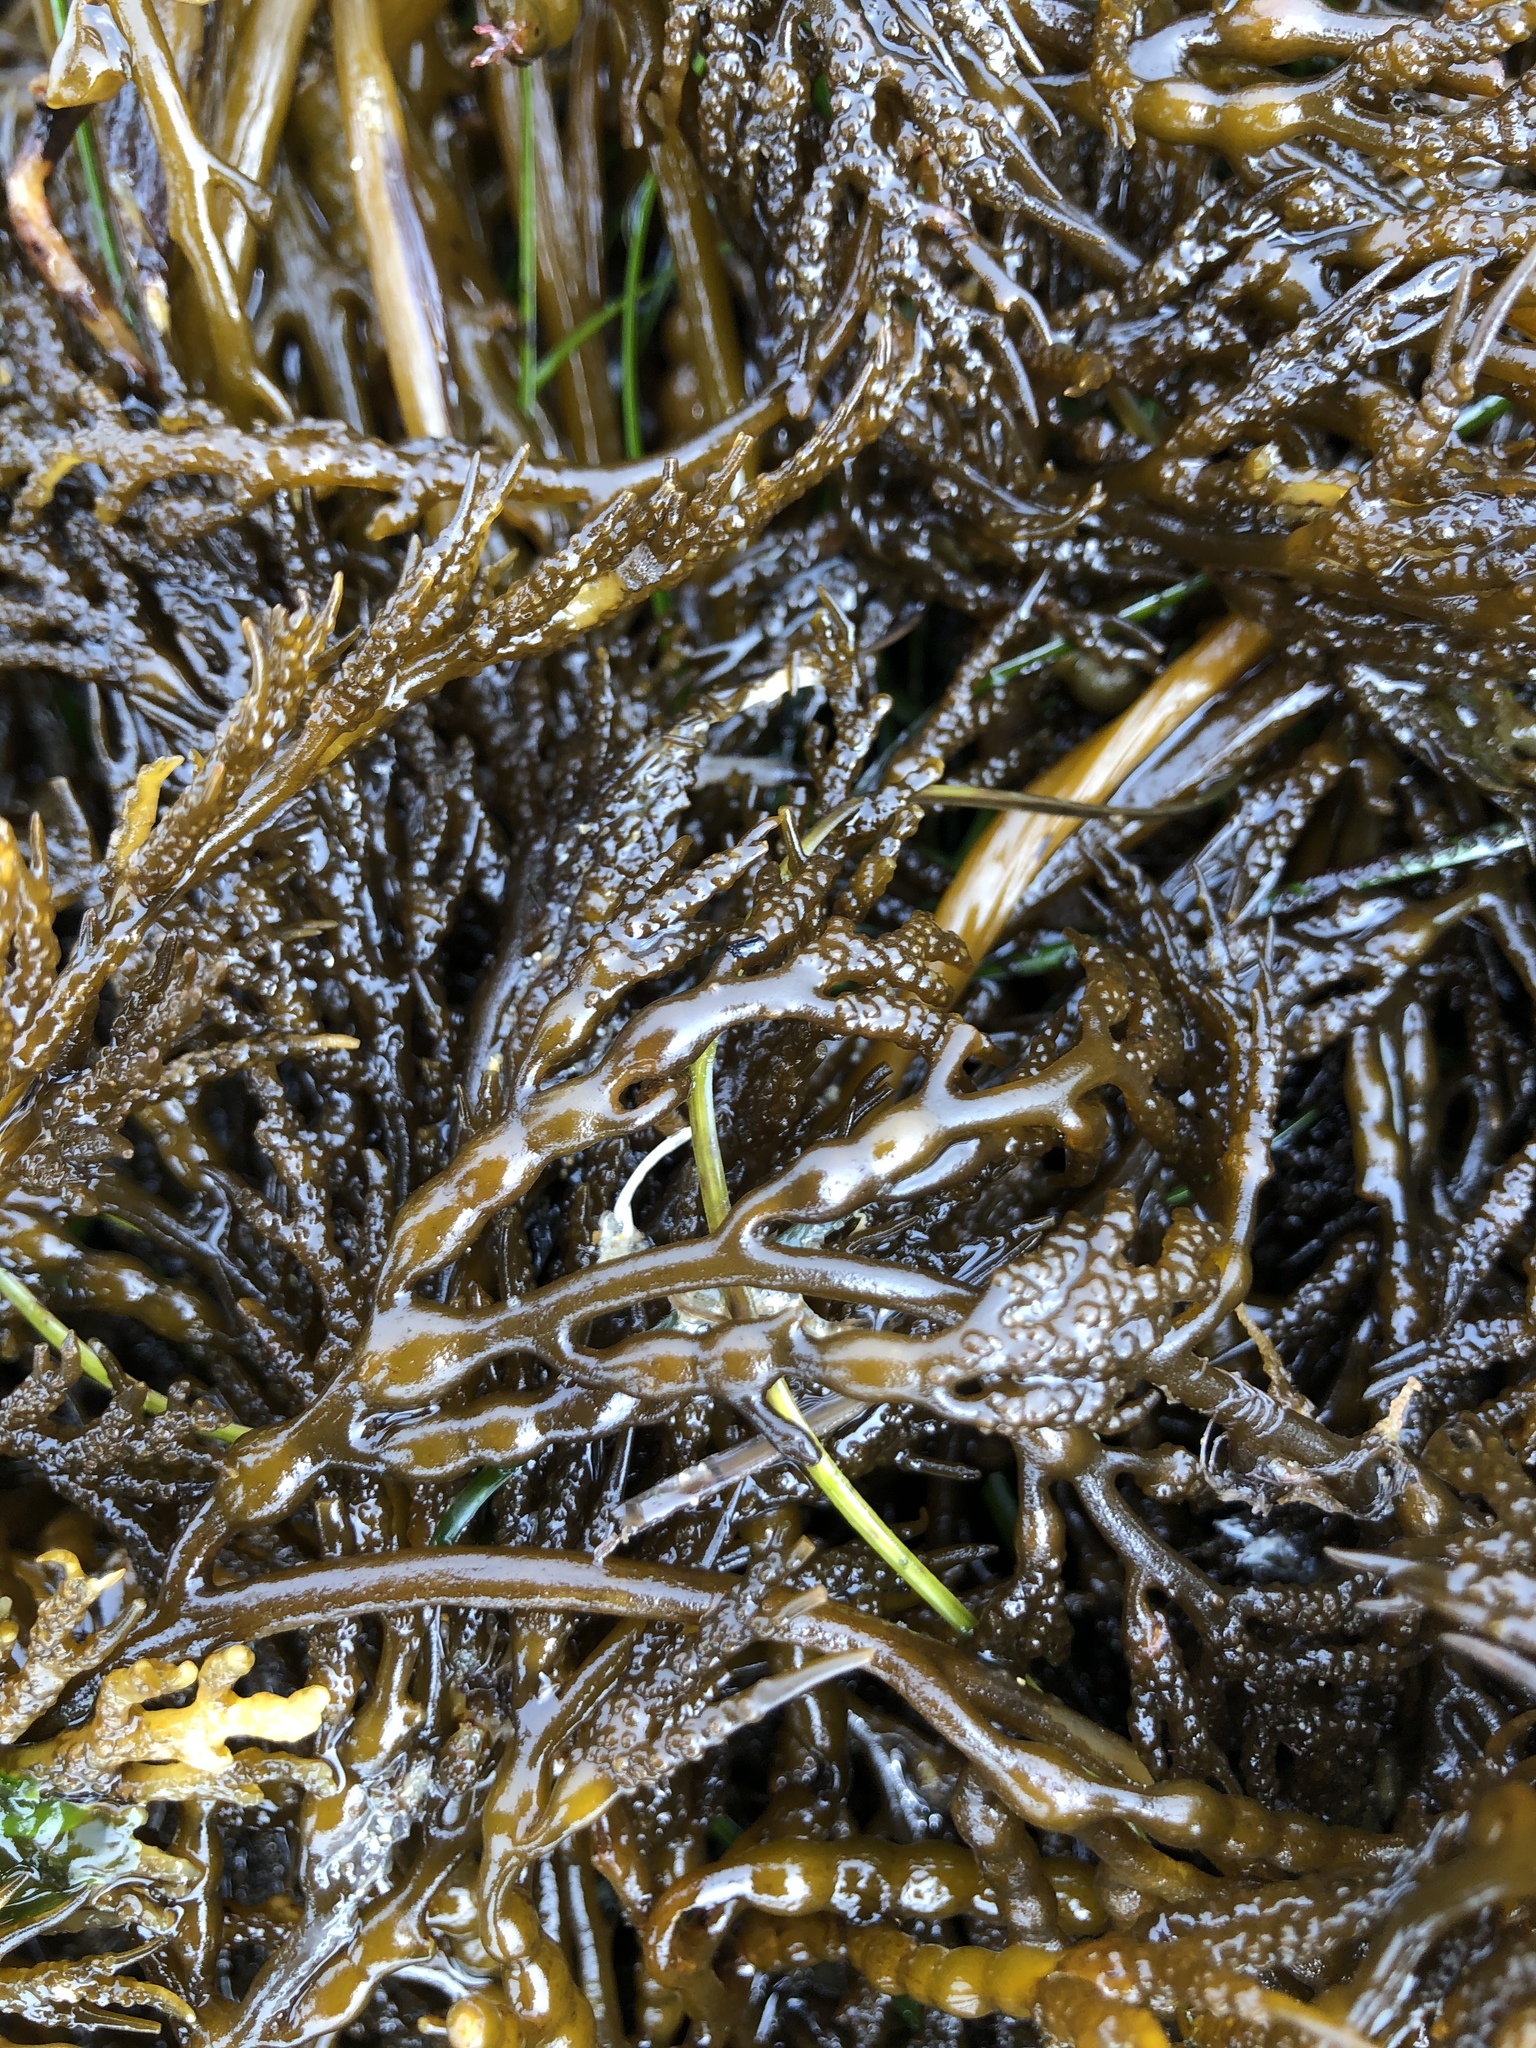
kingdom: Chromista
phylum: Ochrophyta
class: Phaeophyceae
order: Fucales
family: Sargassaceae
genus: Stephanocystis
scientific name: Stephanocystis
